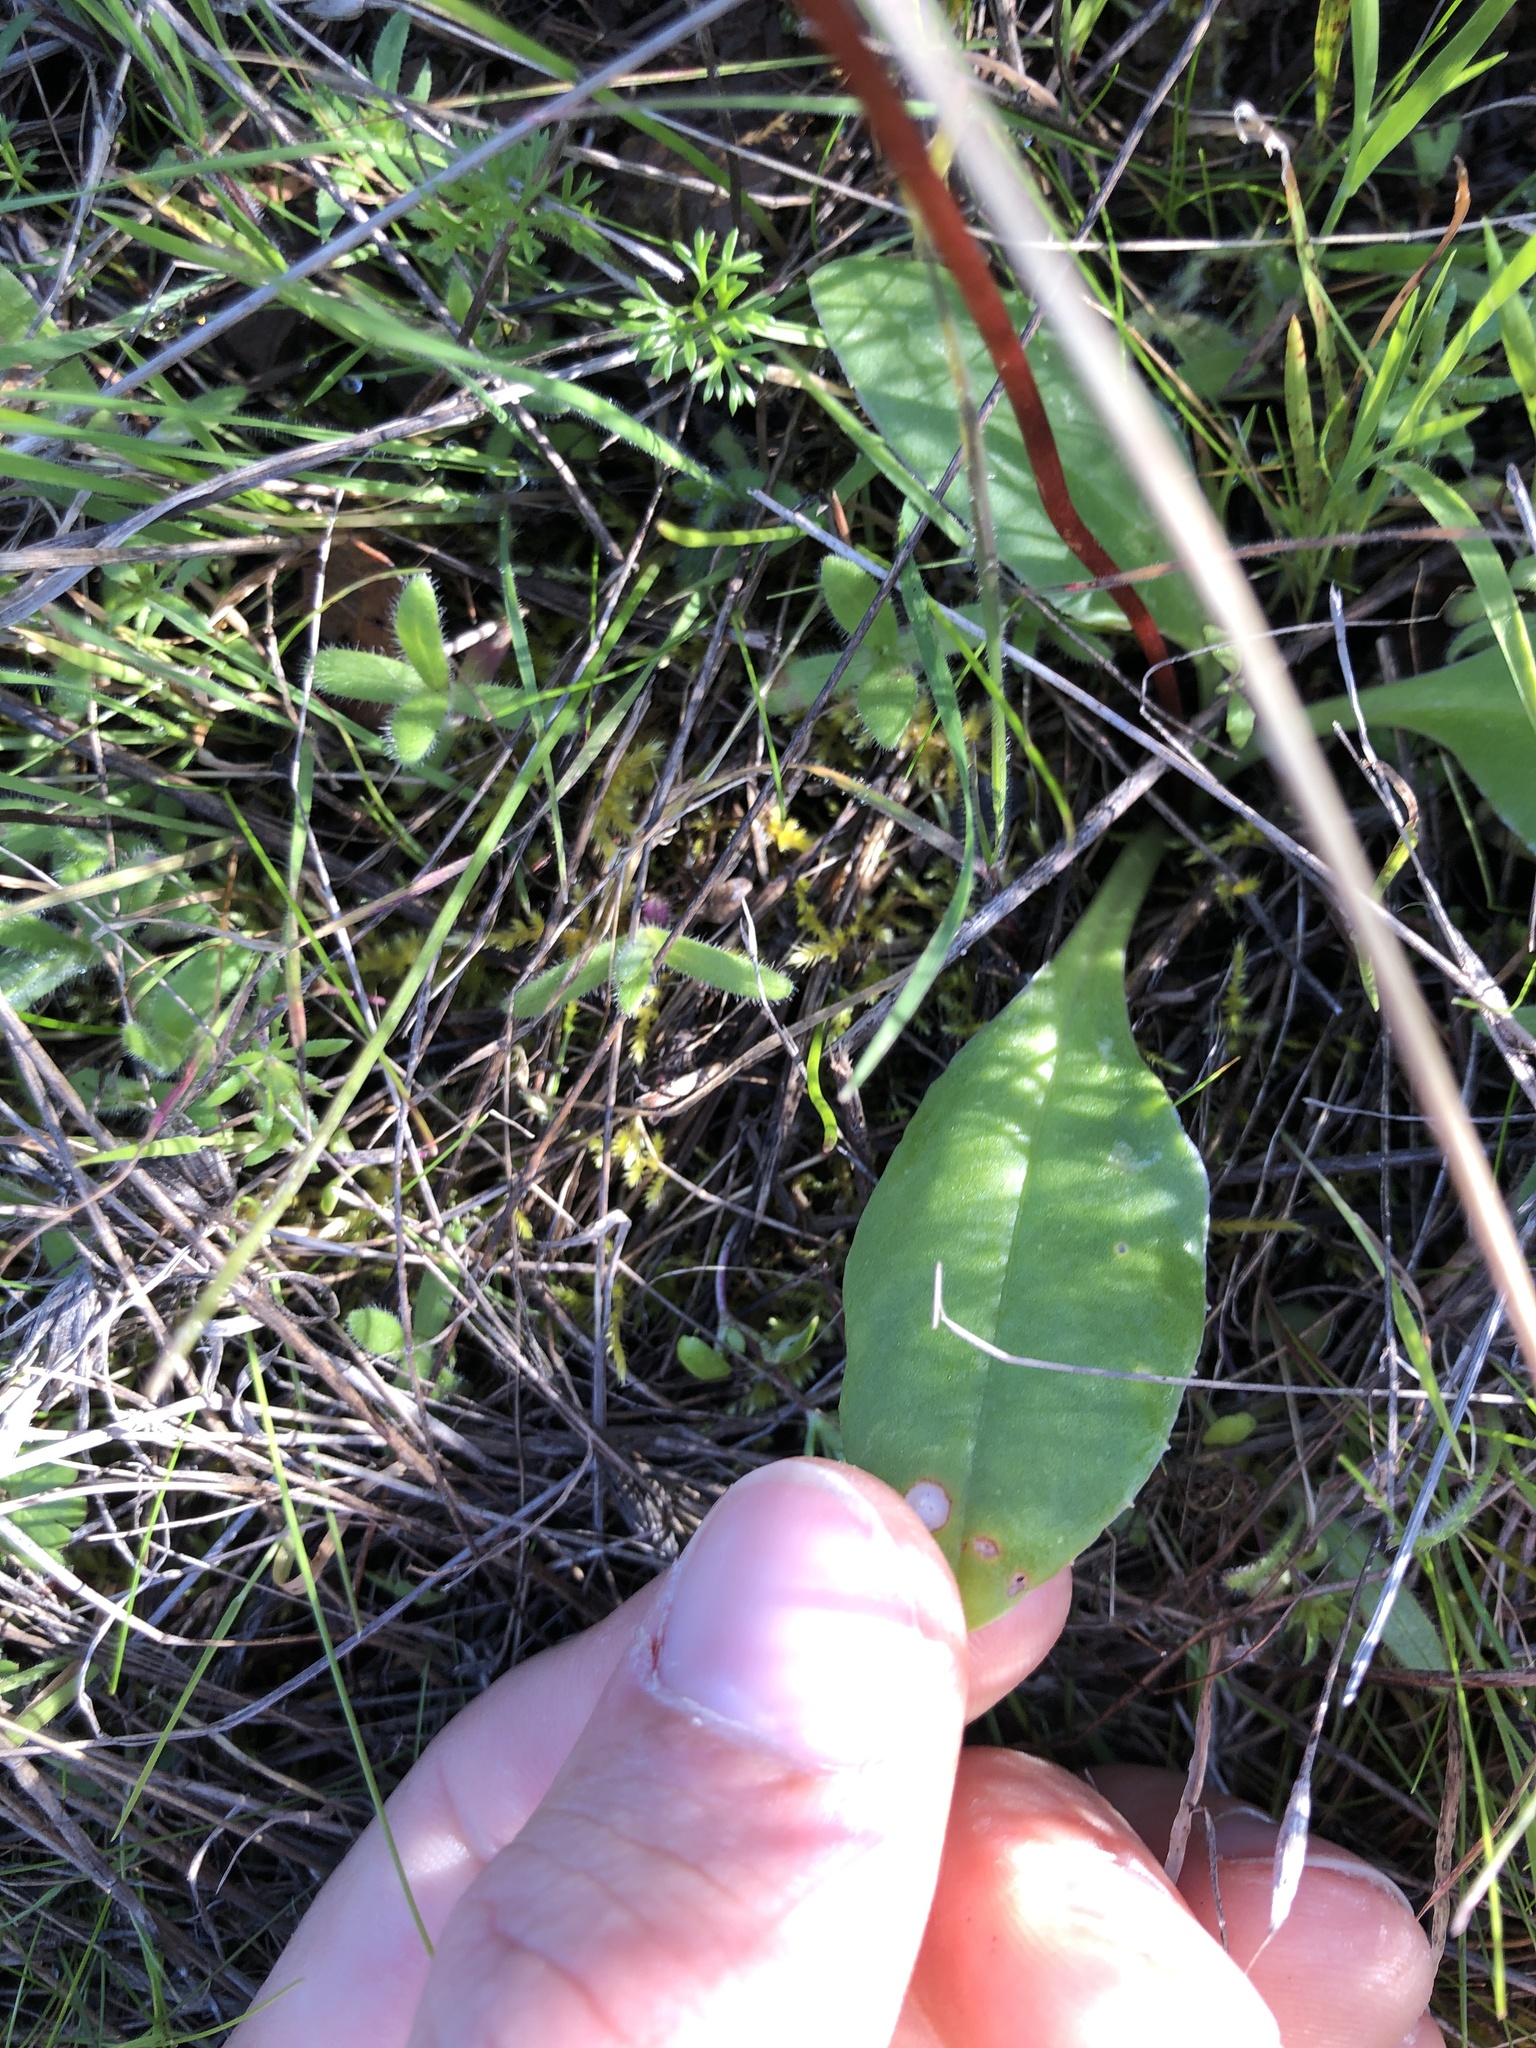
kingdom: Plantae
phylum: Tracheophyta
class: Magnoliopsida
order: Ericales
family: Primulaceae
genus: Dodecatheon
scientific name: Dodecatheon hendersonii
